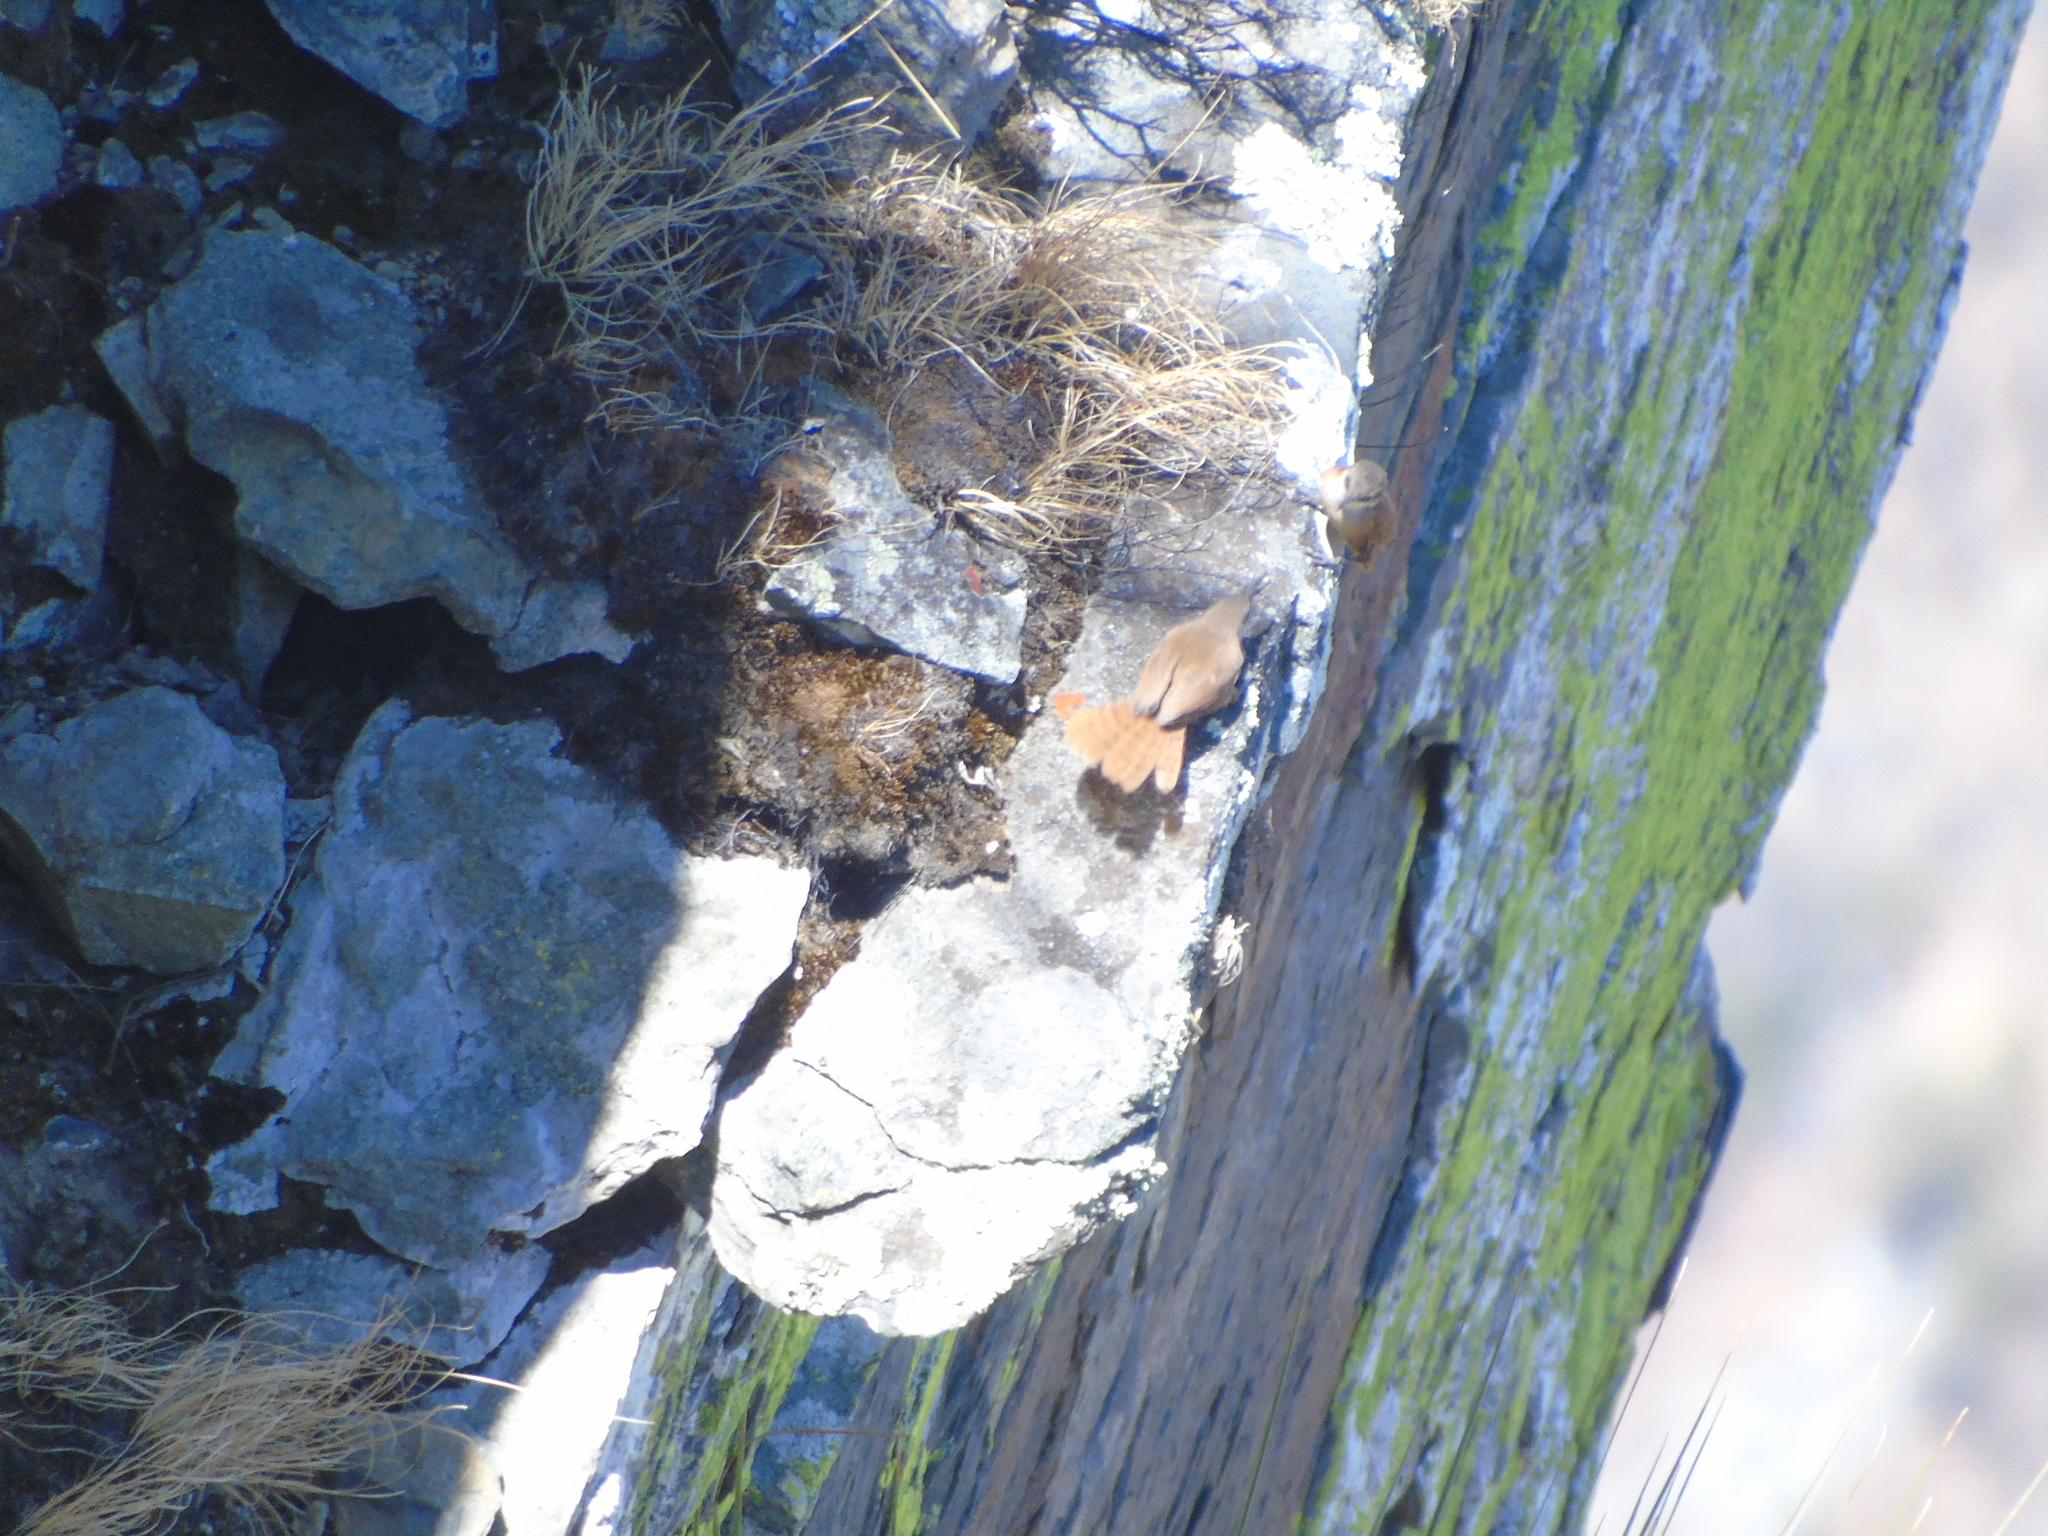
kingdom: Animalia
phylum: Chordata
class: Aves
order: Passeriformes
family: Troglodytidae
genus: Catherpes
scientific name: Catherpes mexicanus
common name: Canyon wren
